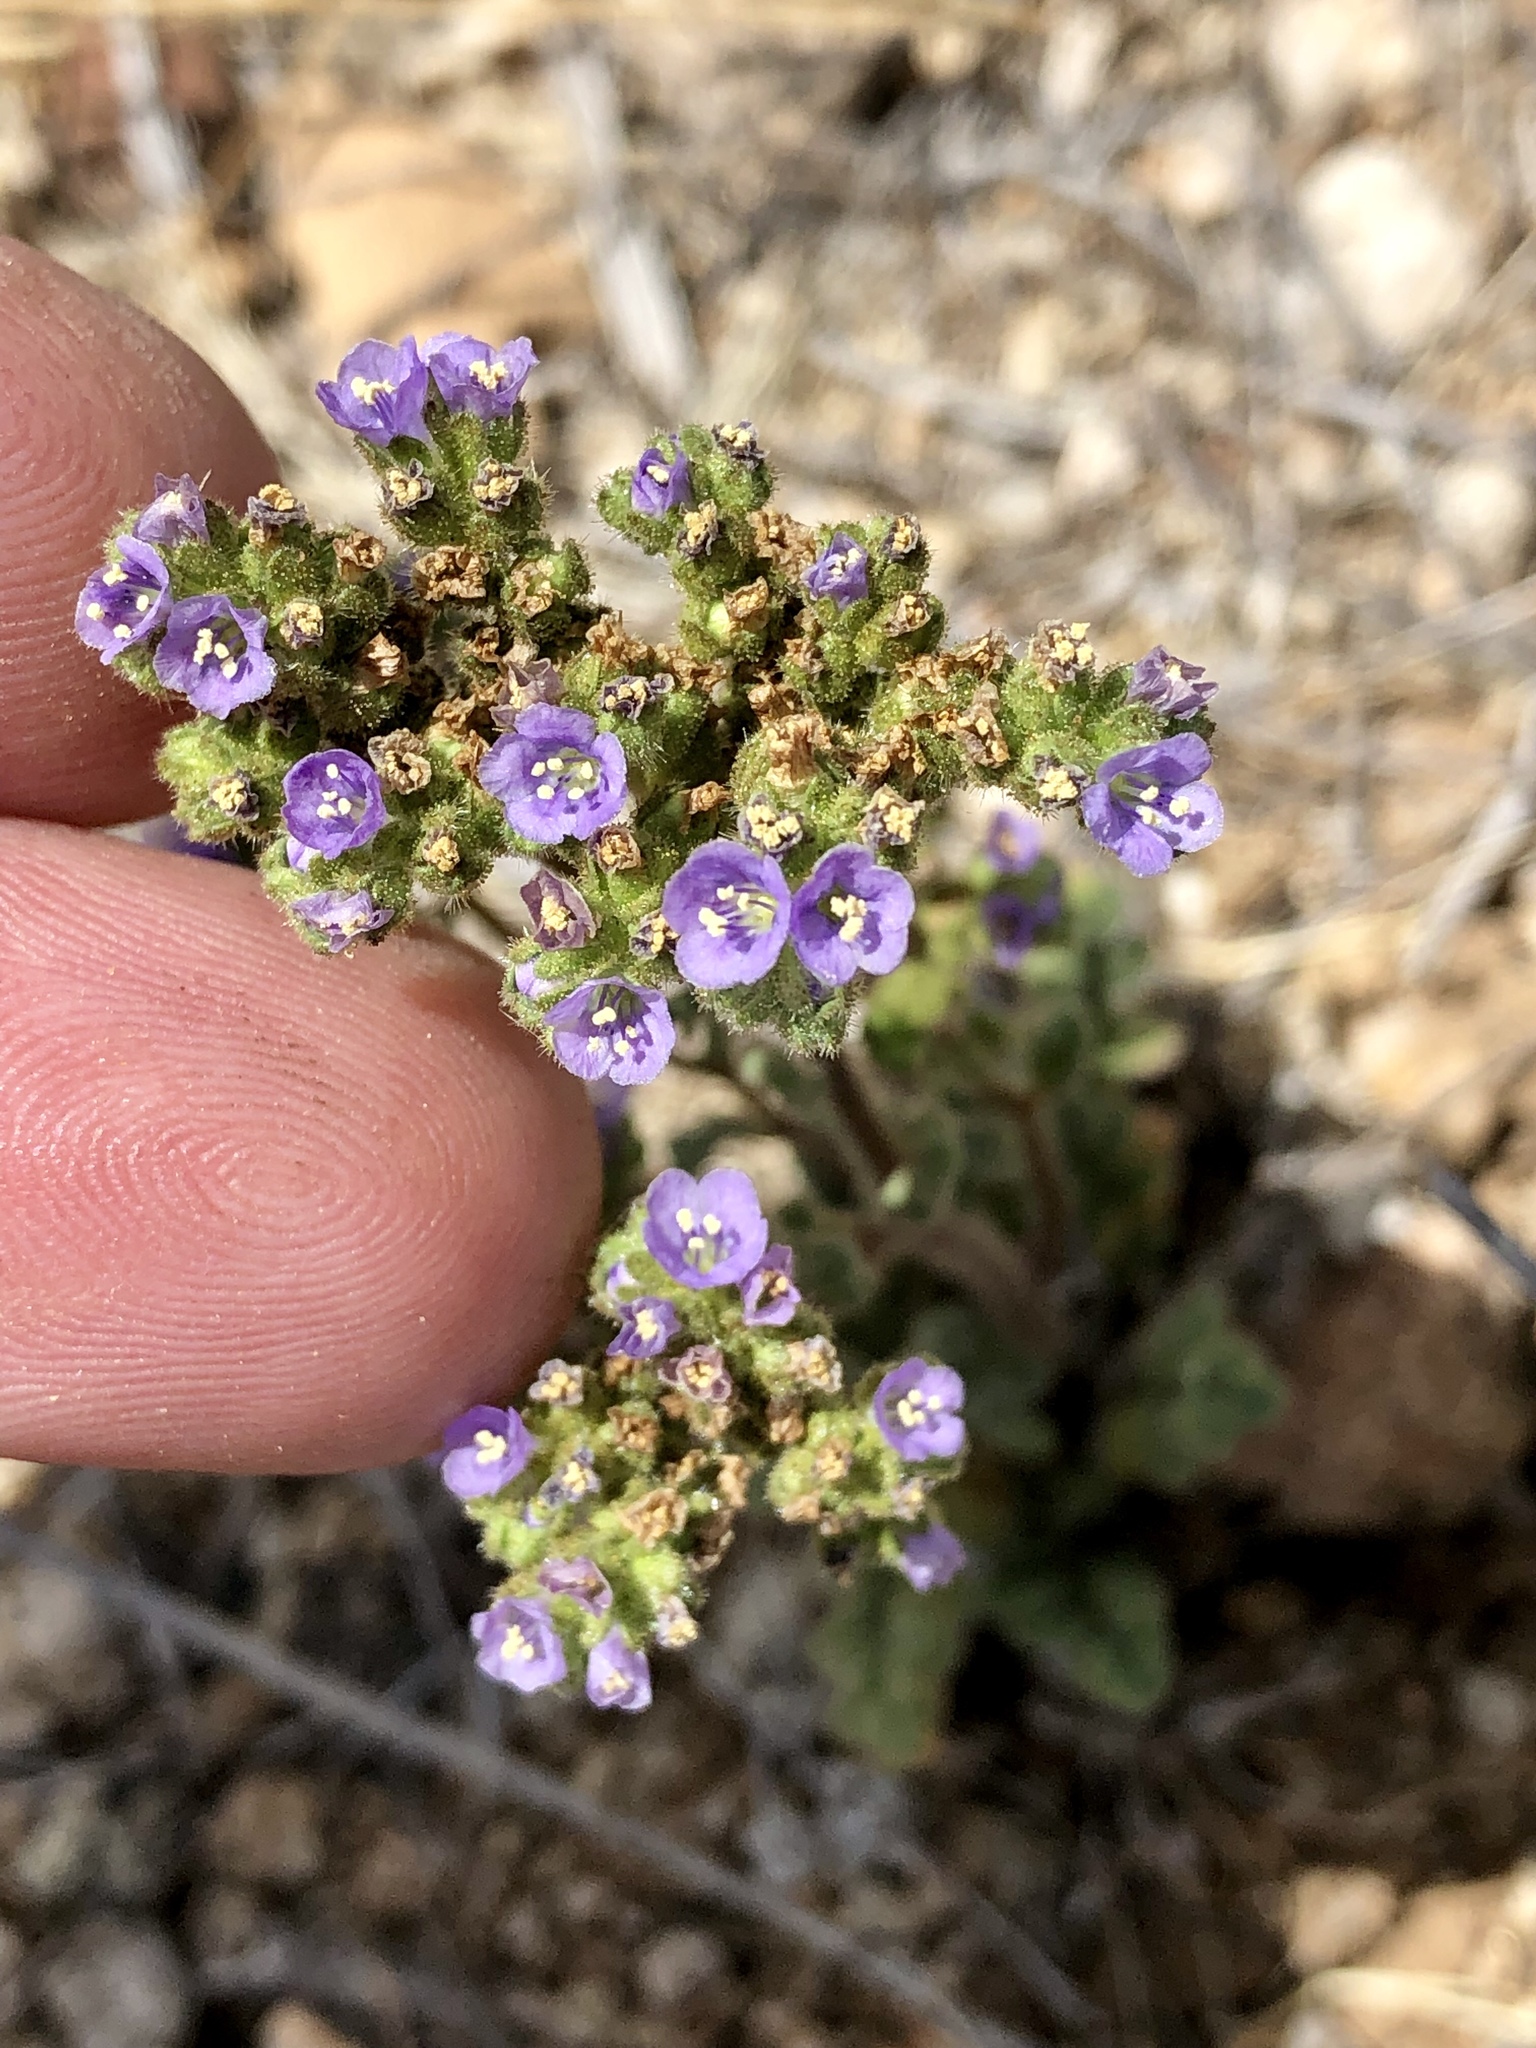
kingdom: Plantae
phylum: Tracheophyta
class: Magnoliopsida
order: Boraginales
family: Hydrophyllaceae
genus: Phacelia
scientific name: Phacelia coerulea
